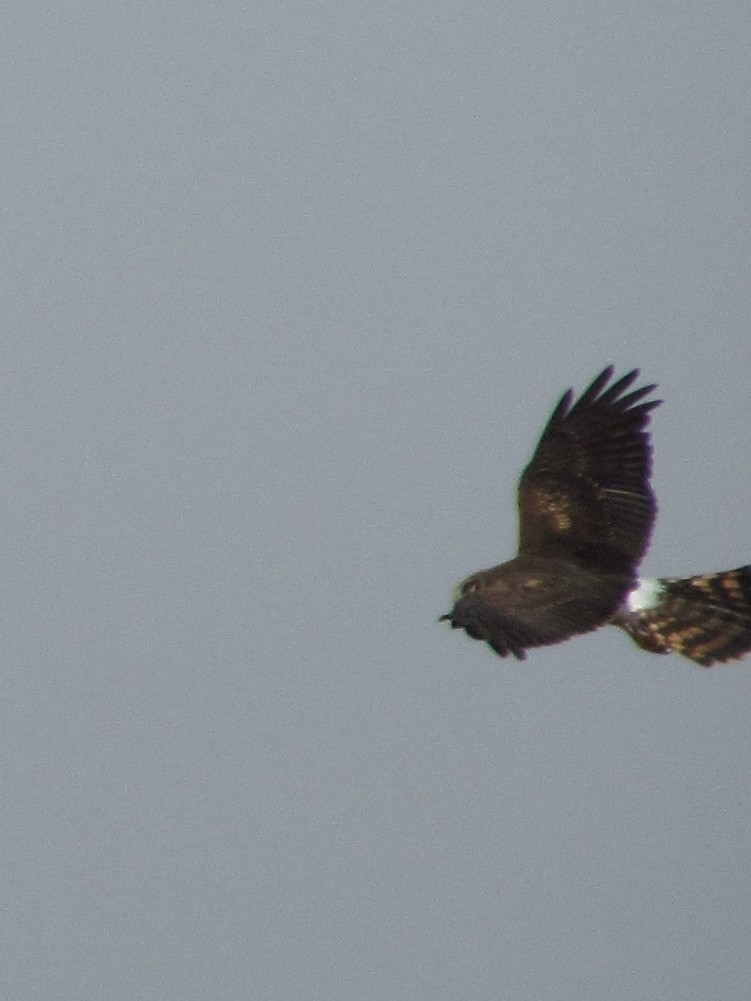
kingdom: Animalia
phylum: Chordata
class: Aves
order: Accipitriformes
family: Accipitridae
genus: Circus
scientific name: Circus cyaneus
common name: Hen harrier
